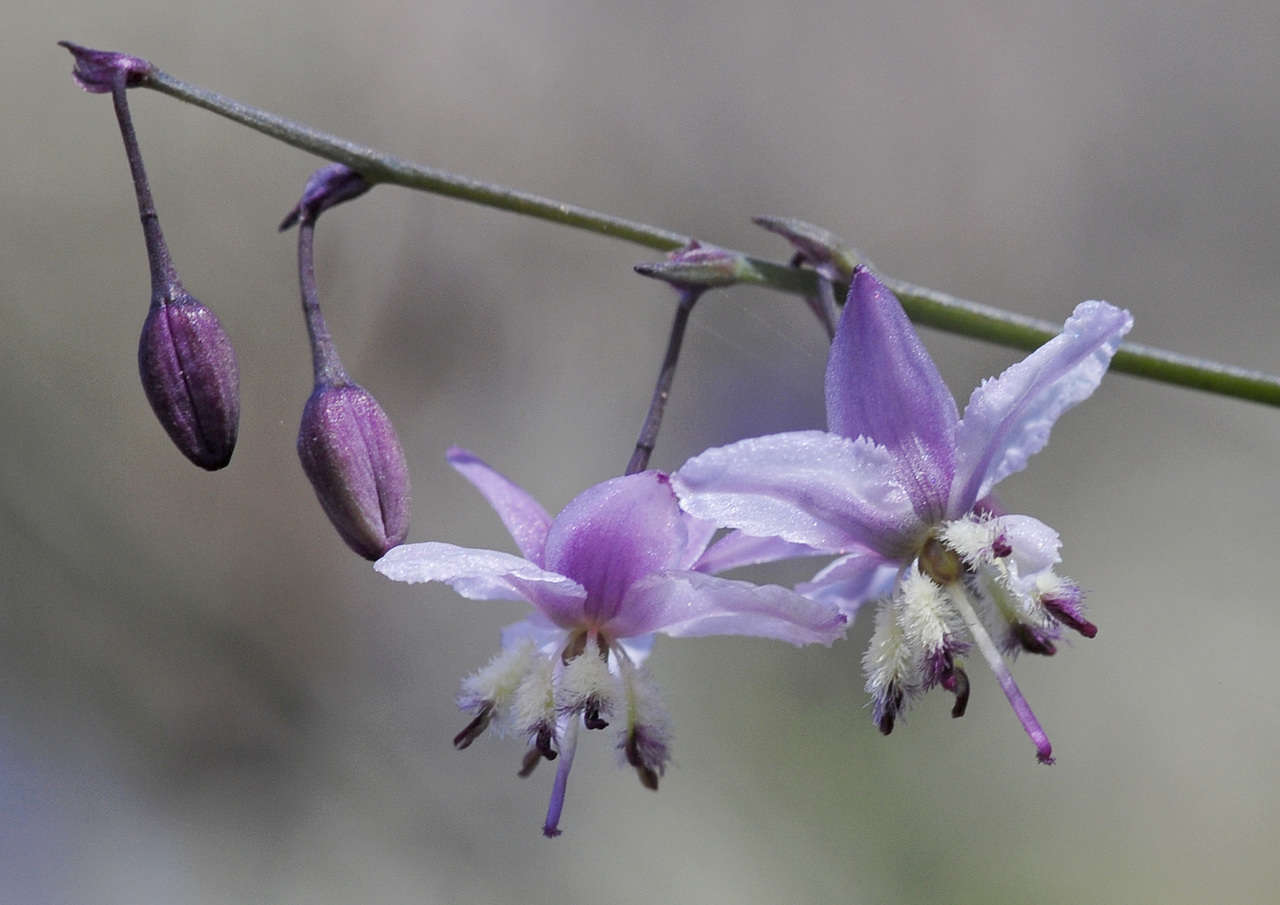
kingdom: Plantae
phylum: Tracheophyta
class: Liliopsida
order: Asparagales
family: Asparagaceae
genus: Arthropodium
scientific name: Arthropodium milleflorum
